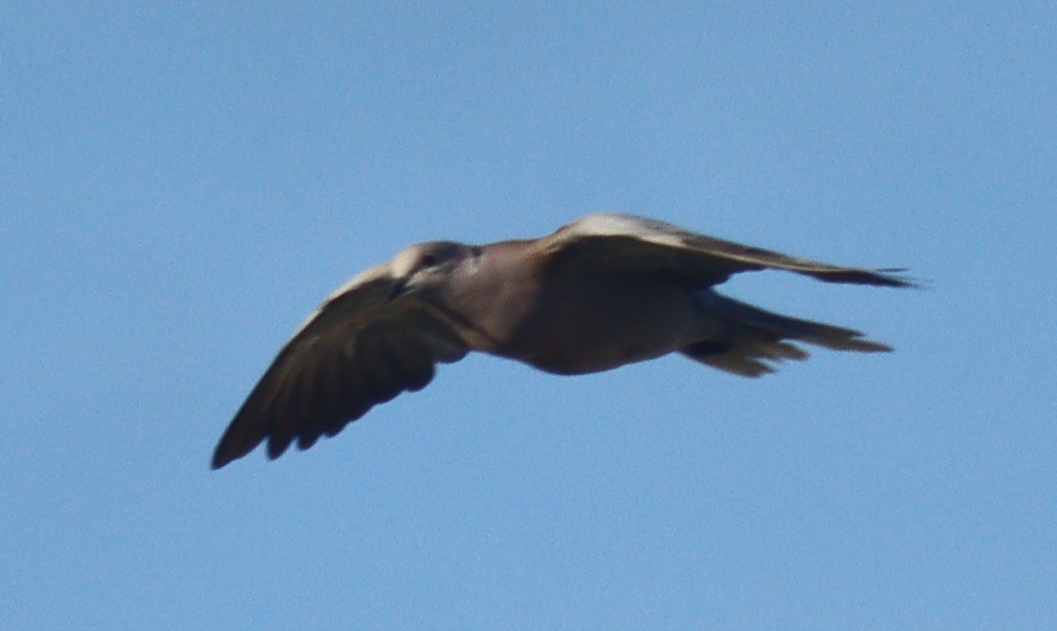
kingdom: Animalia
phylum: Chordata
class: Aves
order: Columbiformes
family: Columbidae
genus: Streptopelia
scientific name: Streptopelia decaocto
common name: Eurasian collared dove
